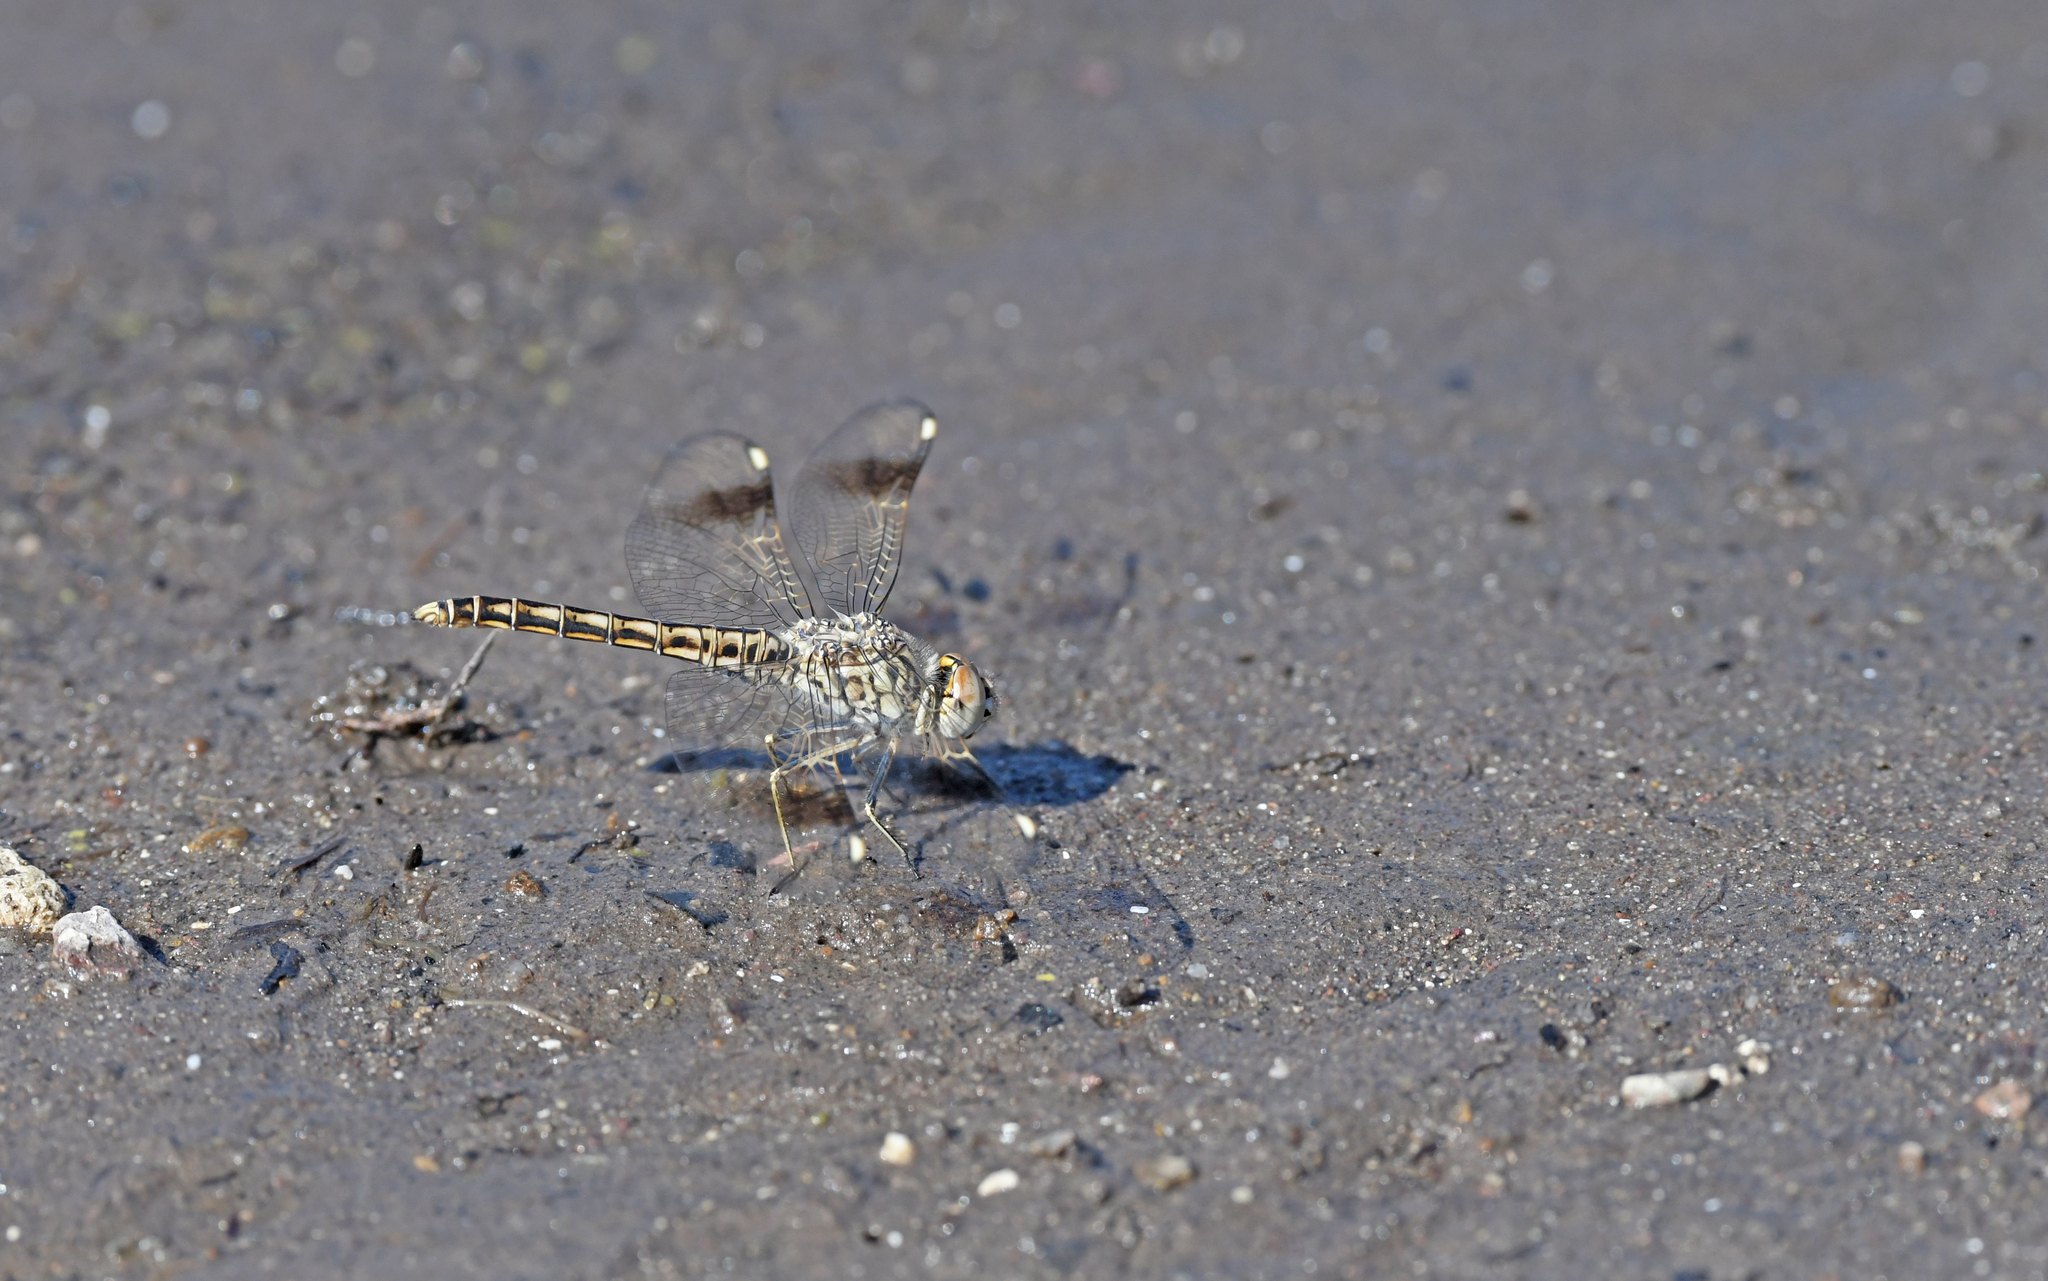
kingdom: Animalia
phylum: Arthropoda
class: Insecta
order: Odonata
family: Libellulidae
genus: Brachythemis
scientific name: Brachythemis impartita
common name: Banded groundling
